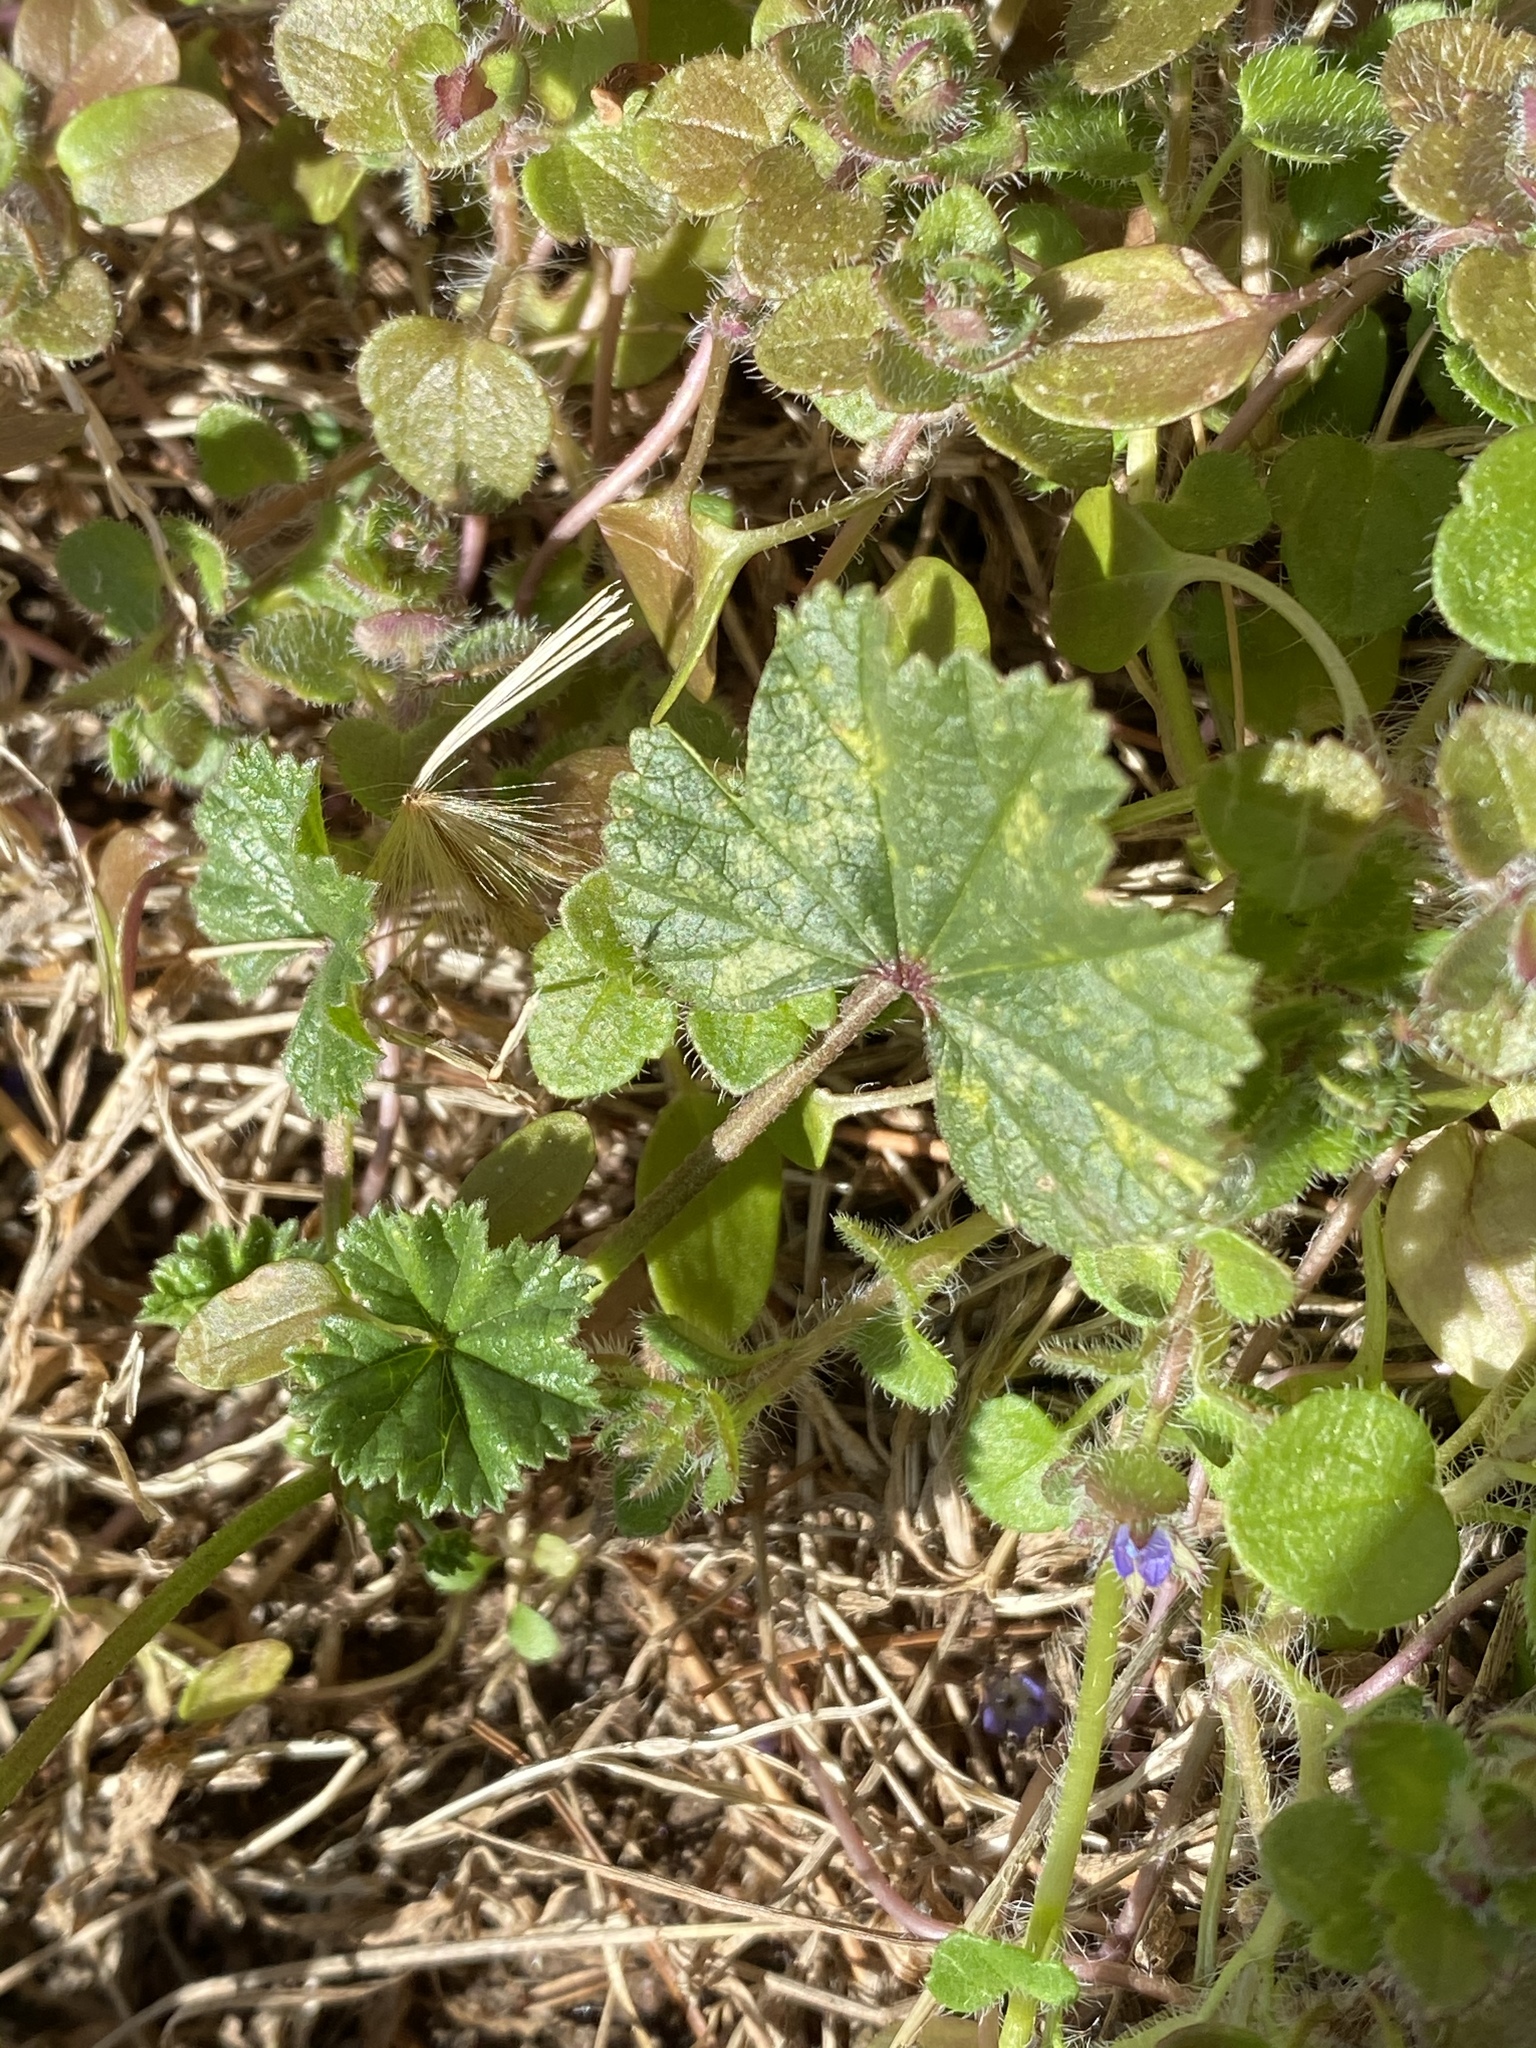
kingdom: Plantae
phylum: Tracheophyta
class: Magnoliopsida
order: Malvales
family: Malvaceae
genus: Malva
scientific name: Malva neglecta
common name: Common mallow
